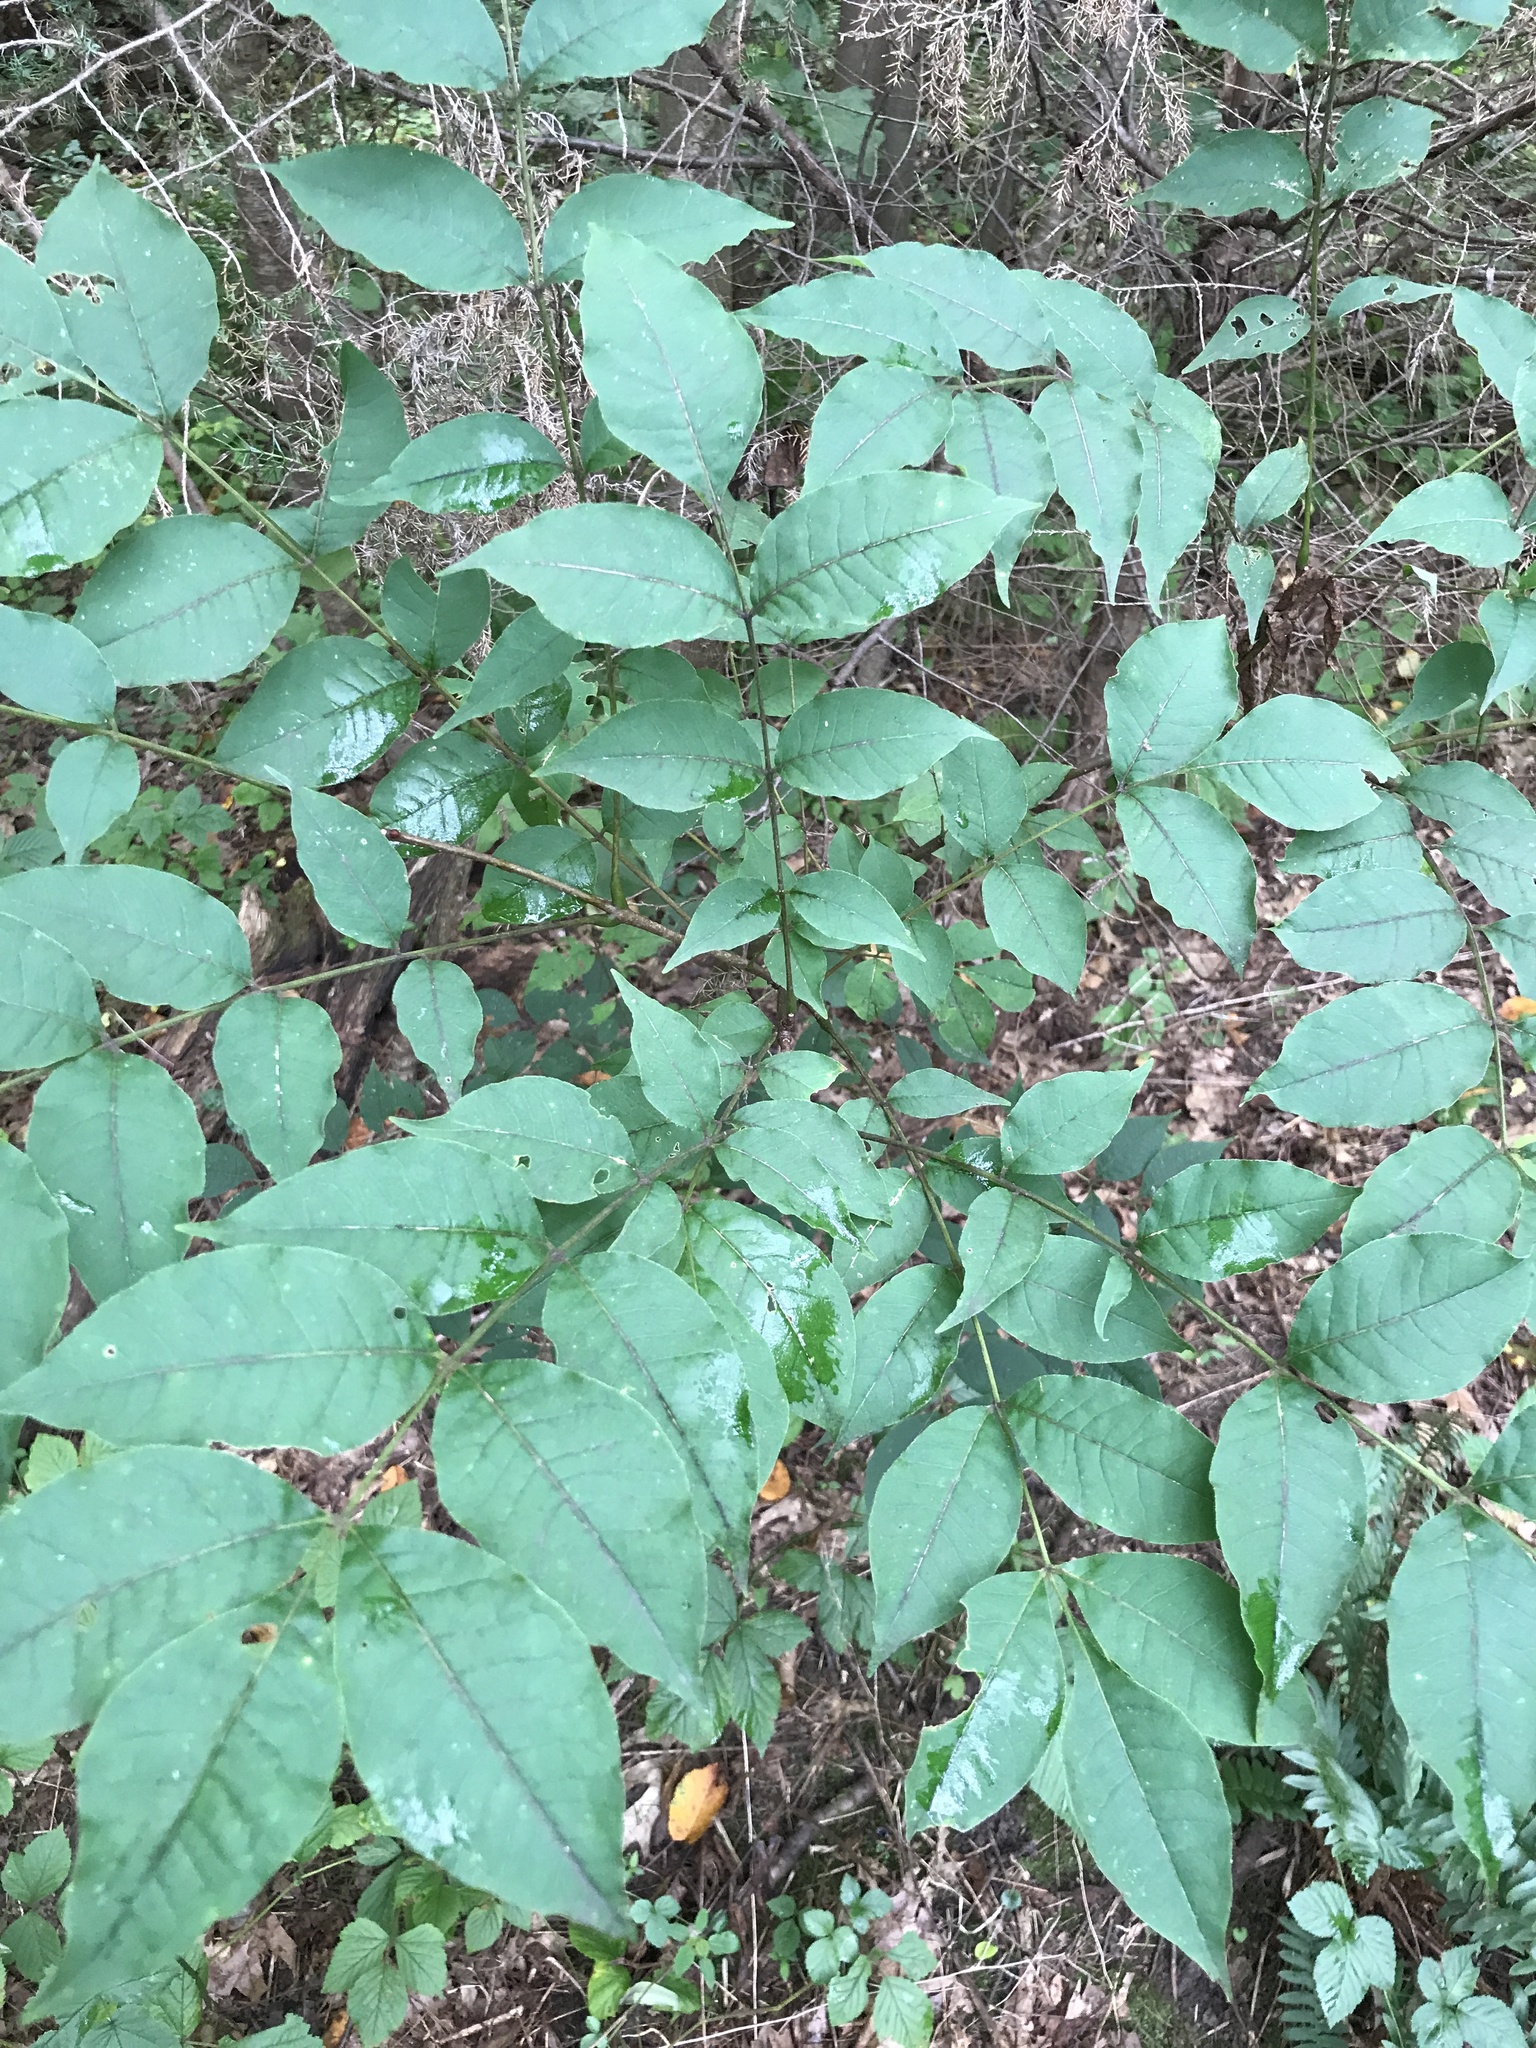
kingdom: Plantae
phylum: Tracheophyta
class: Magnoliopsida
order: Sapindales
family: Rutaceae
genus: Phellodendron
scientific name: Phellodendron amurense
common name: Amur corktree
